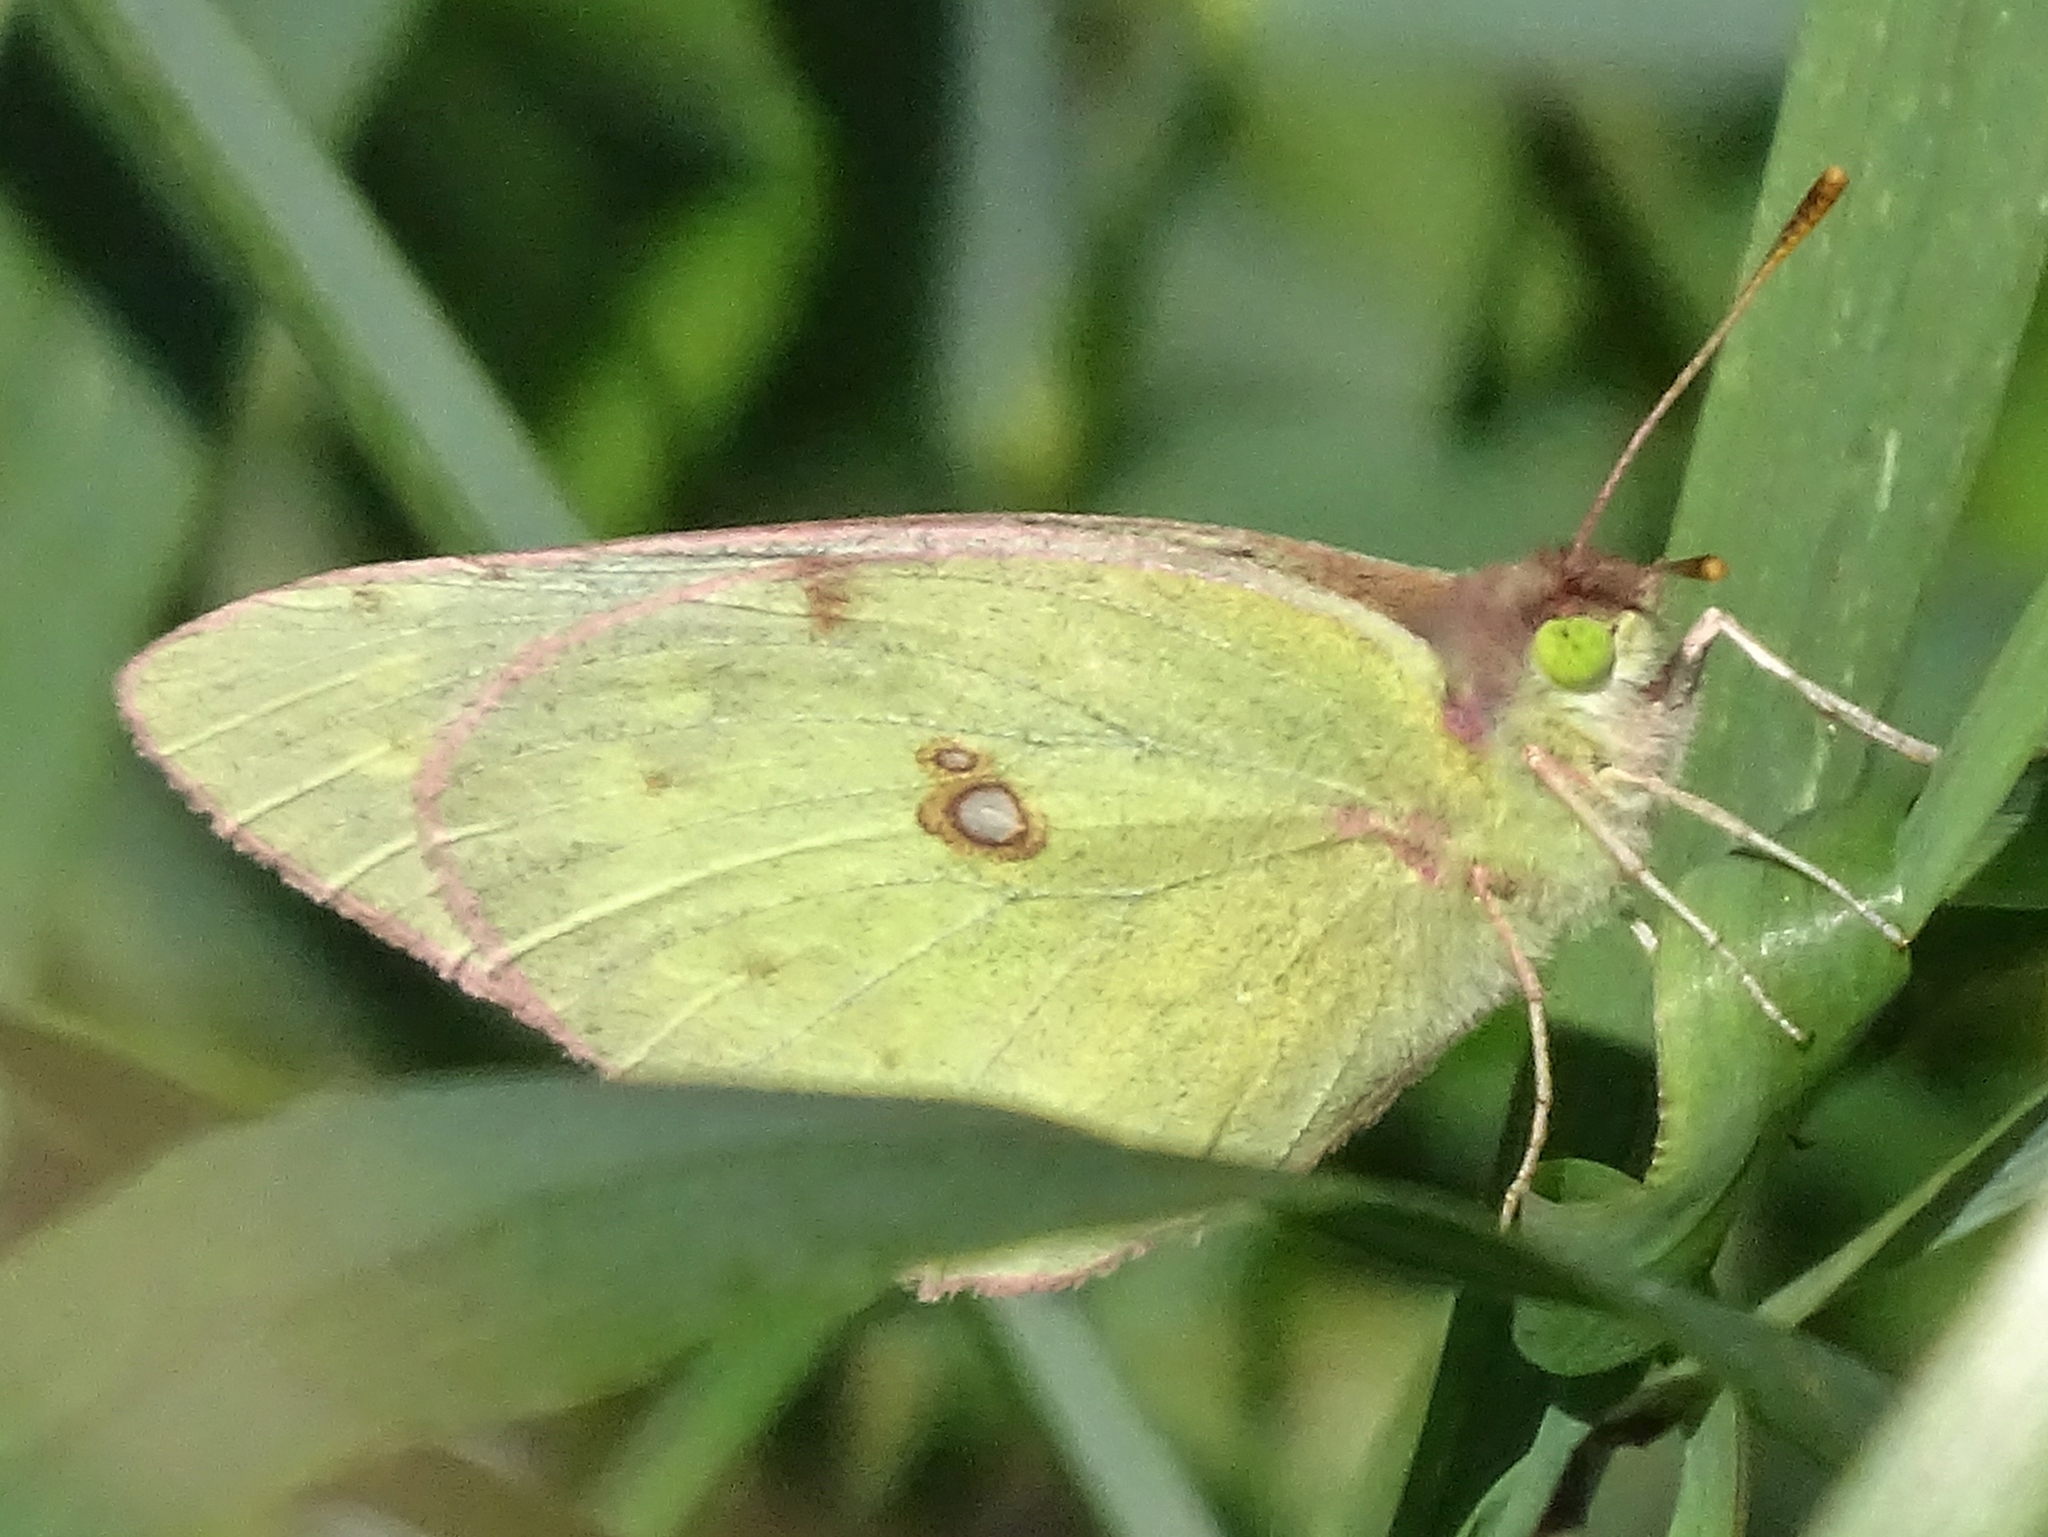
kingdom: Animalia
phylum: Arthropoda
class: Insecta
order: Lepidoptera
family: Pieridae
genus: Colias
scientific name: Colias philodice
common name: Clouded sulphur
